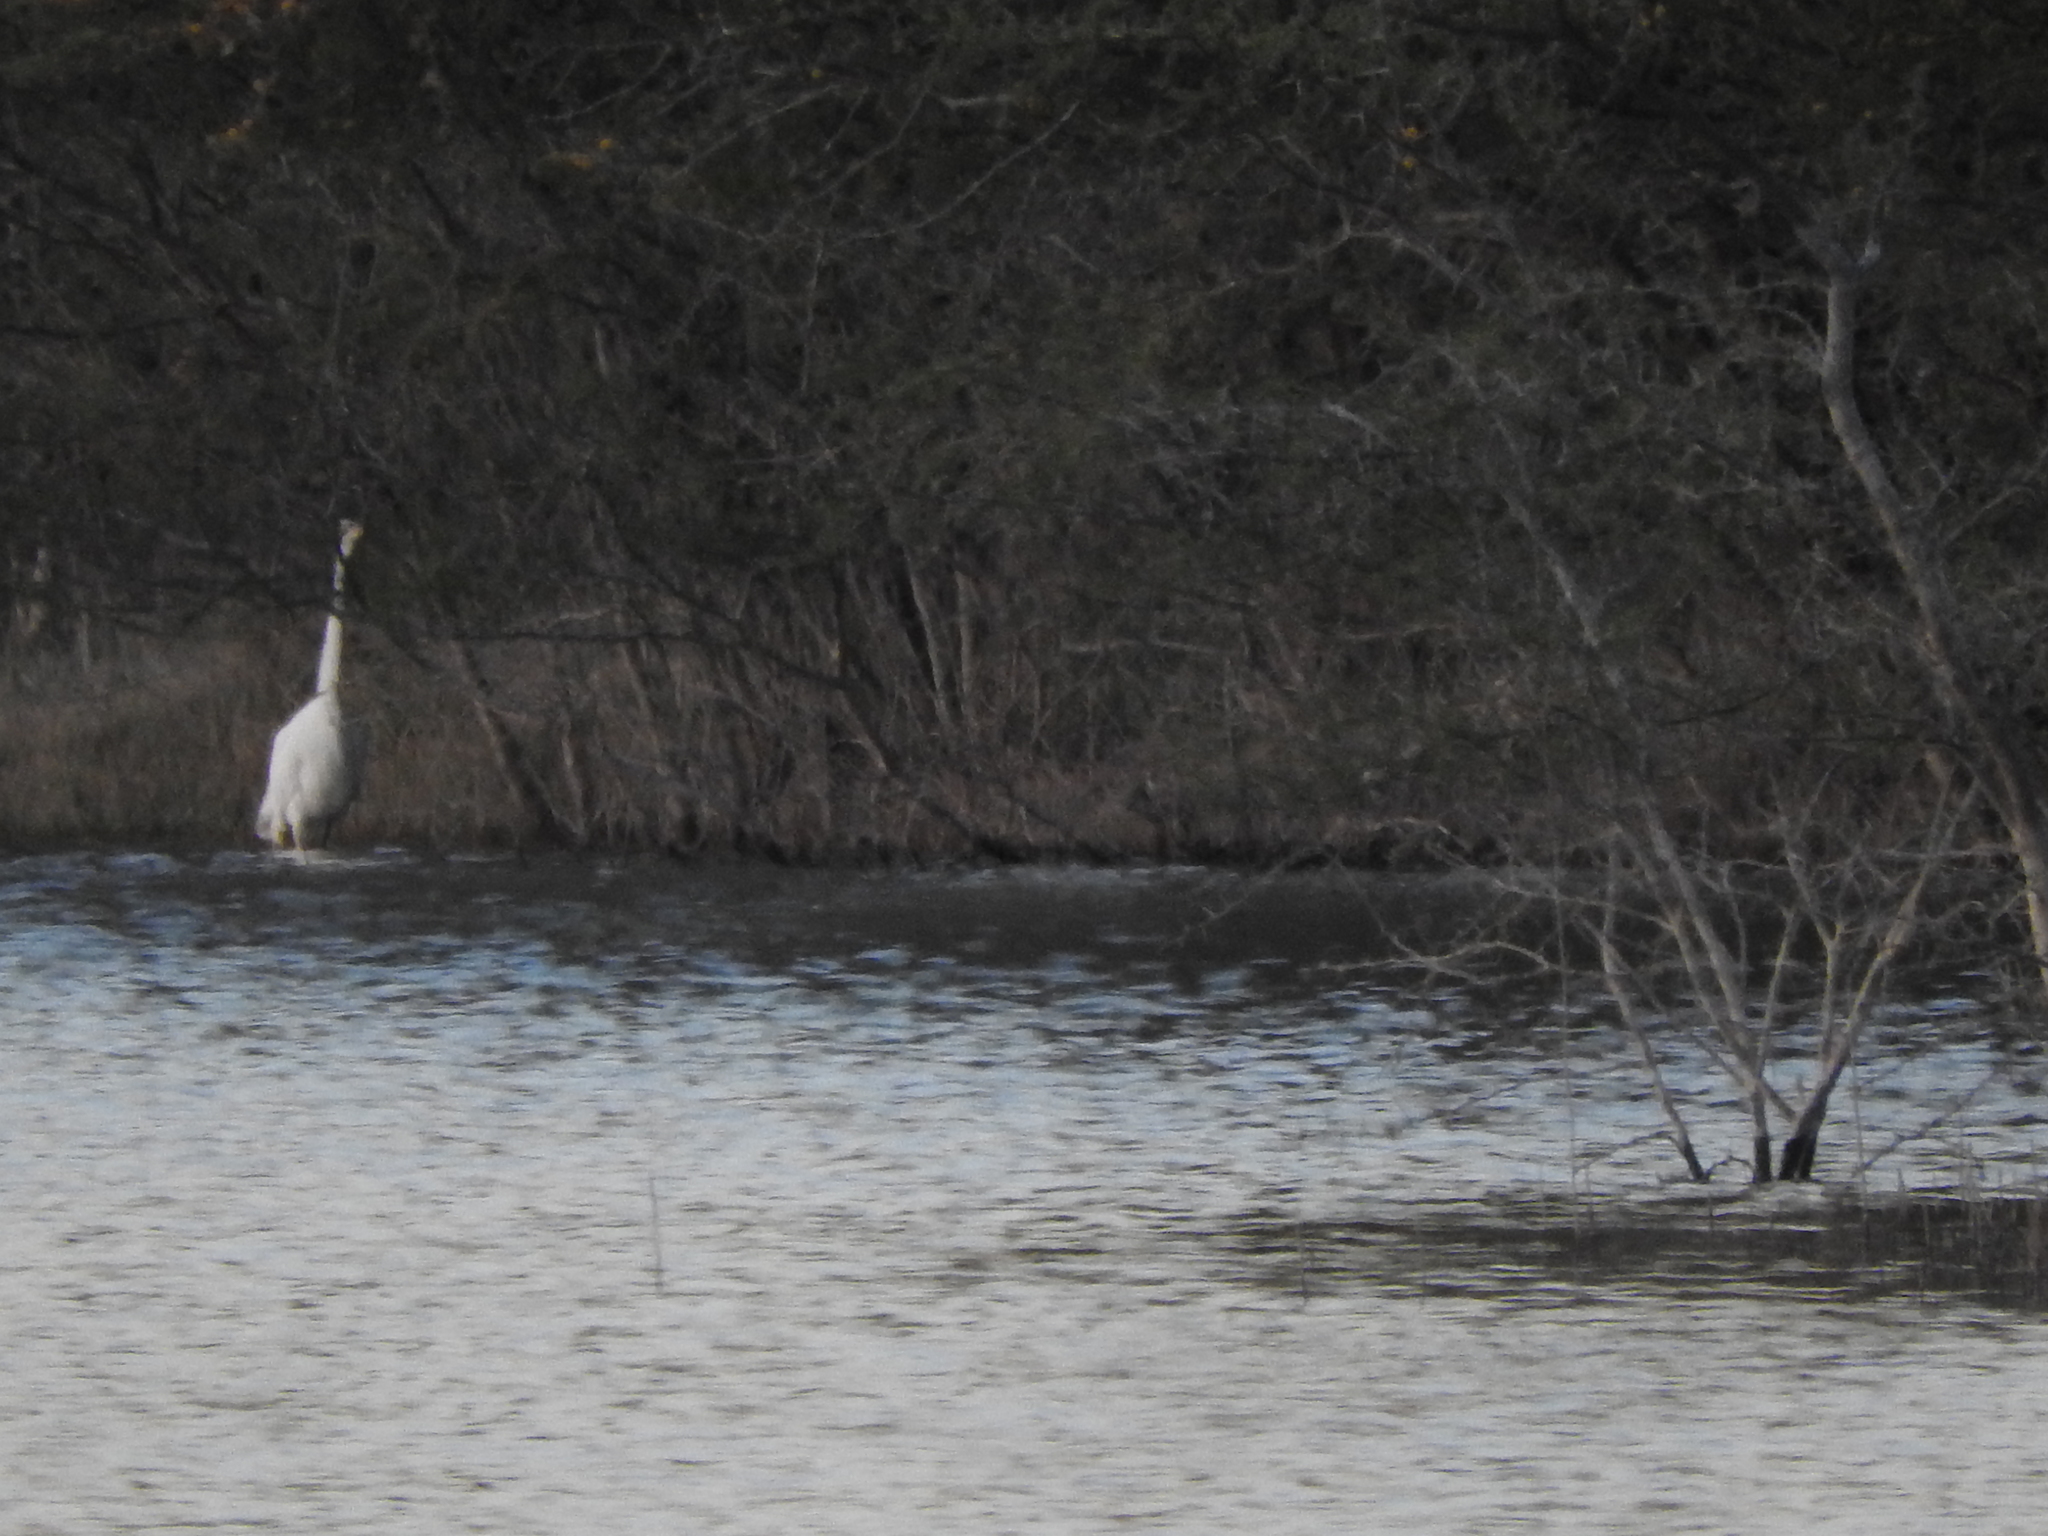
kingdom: Animalia
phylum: Chordata
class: Aves
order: Pelecaniformes
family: Ardeidae
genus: Ardea
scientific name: Ardea alba
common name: Great egret
